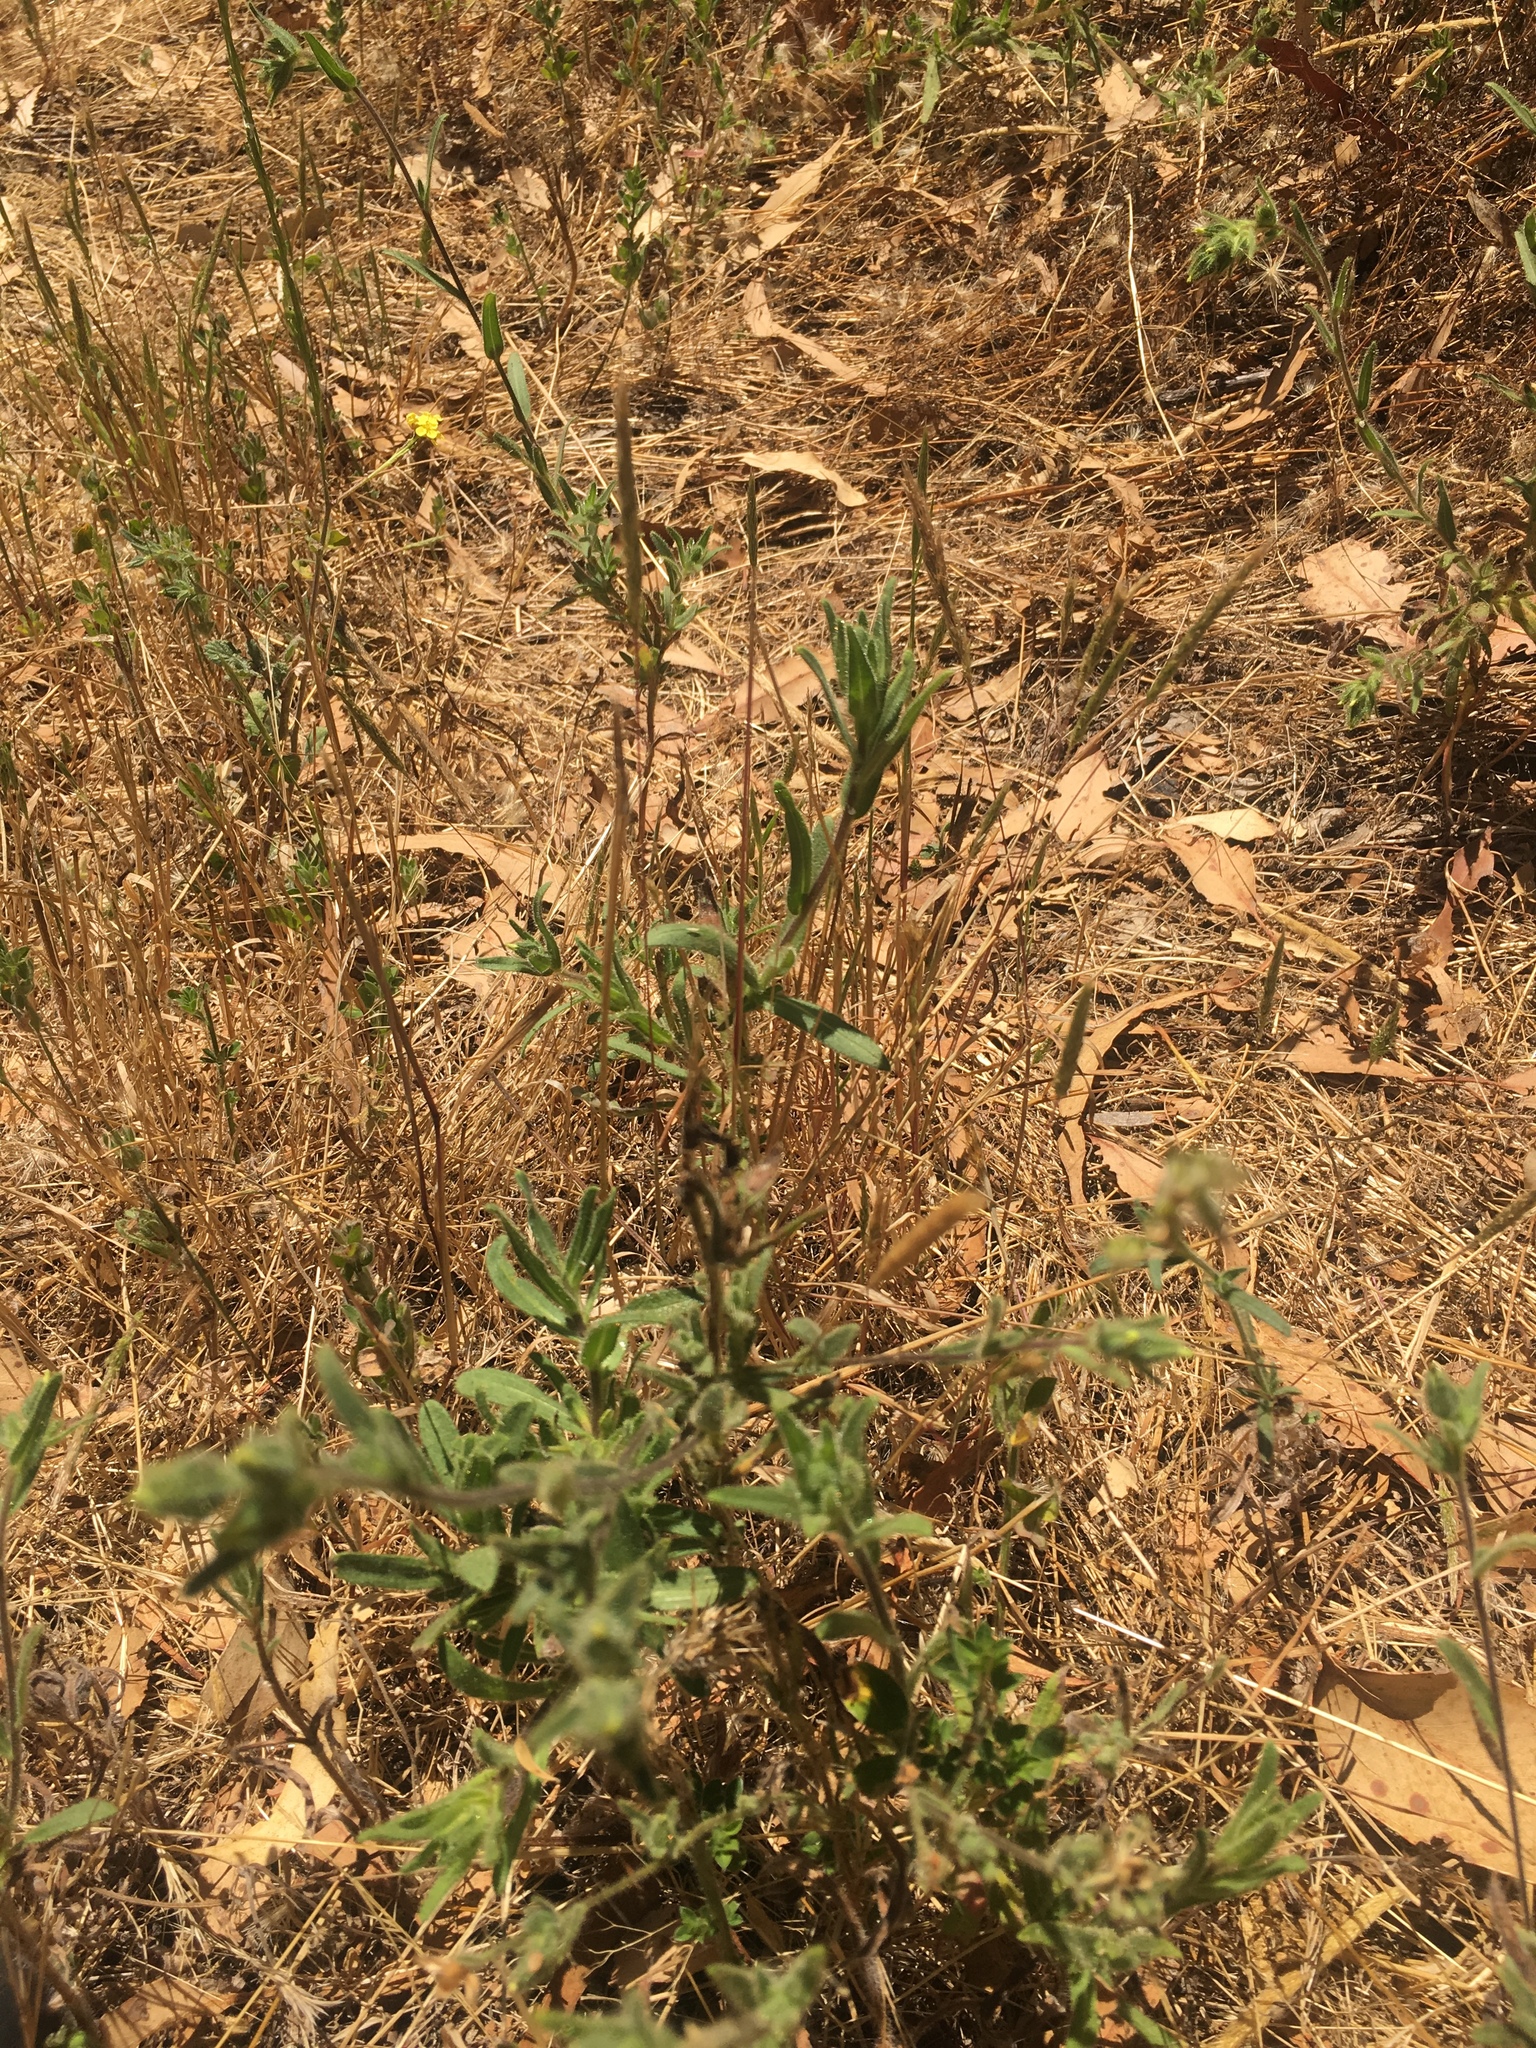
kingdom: Plantae
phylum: Tracheophyta
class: Magnoliopsida
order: Asterales
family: Asteraceae
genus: Madia
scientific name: Madia sativa
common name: Coast tarweed
